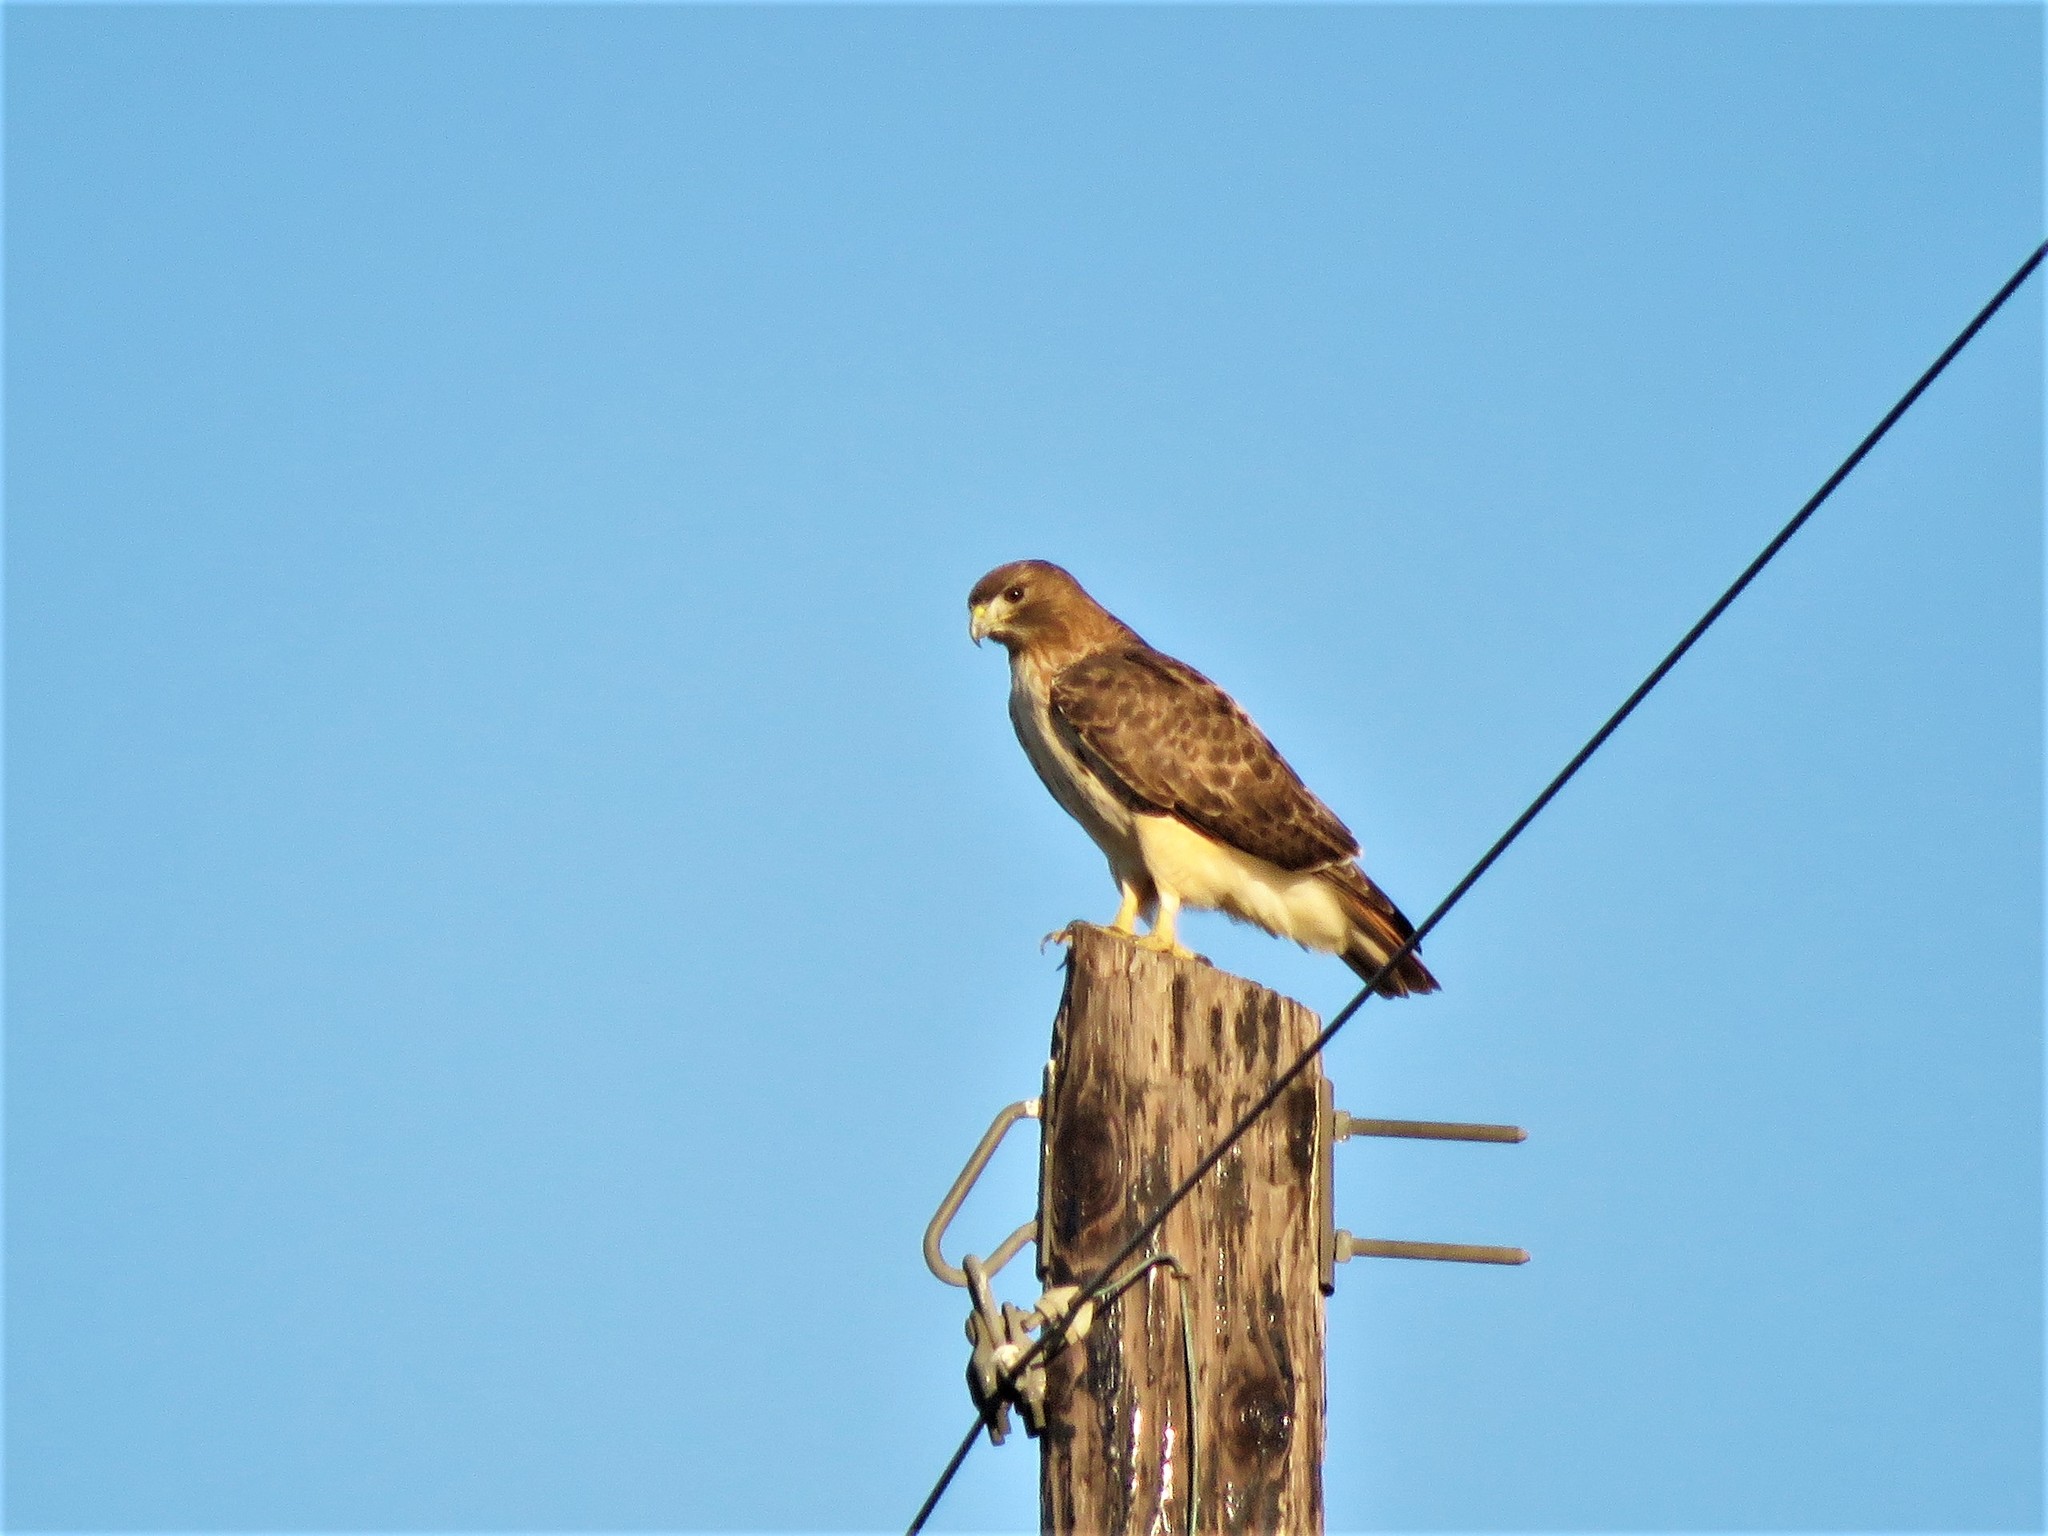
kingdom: Animalia
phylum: Chordata
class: Aves
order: Accipitriformes
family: Accipitridae
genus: Buteo
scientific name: Buteo jamaicensis
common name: Red-tailed hawk
